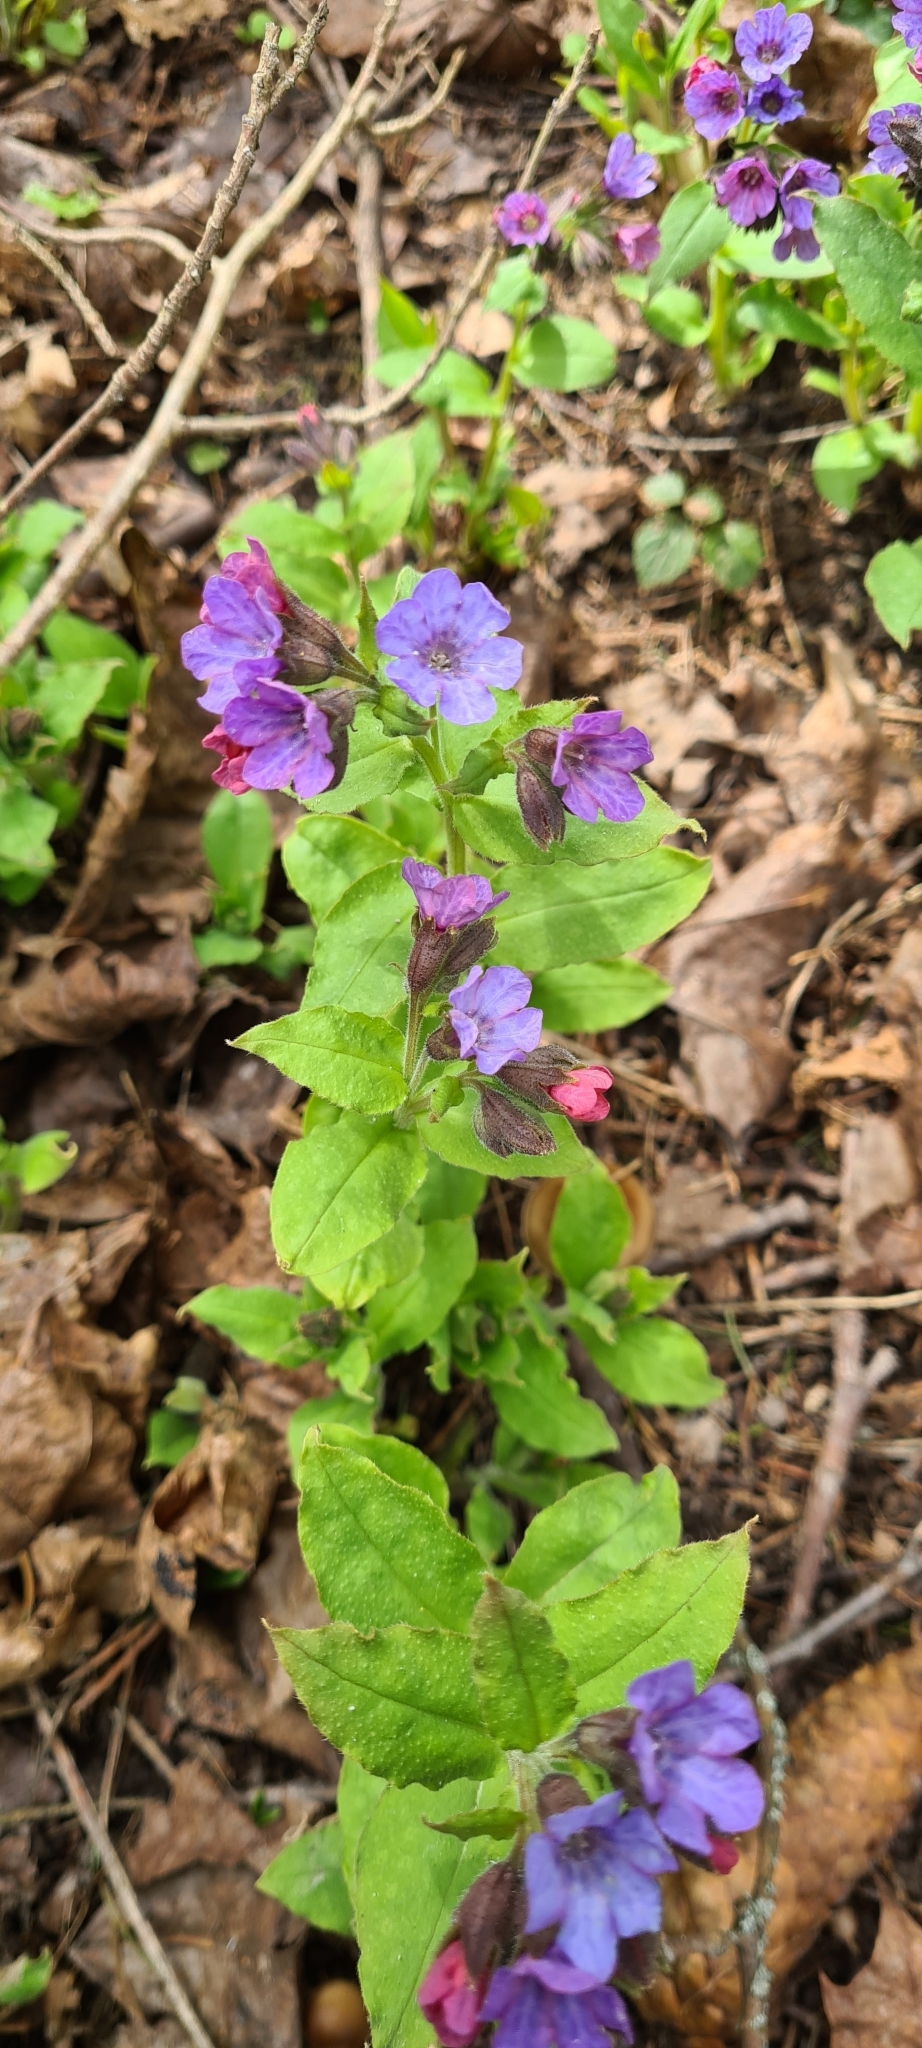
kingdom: Plantae
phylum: Tracheophyta
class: Magnoliopsida
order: Boraginales
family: Boraginaceae
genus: Pulmonaria
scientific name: Pulmonaria obscura
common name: Suffolk lungwort
